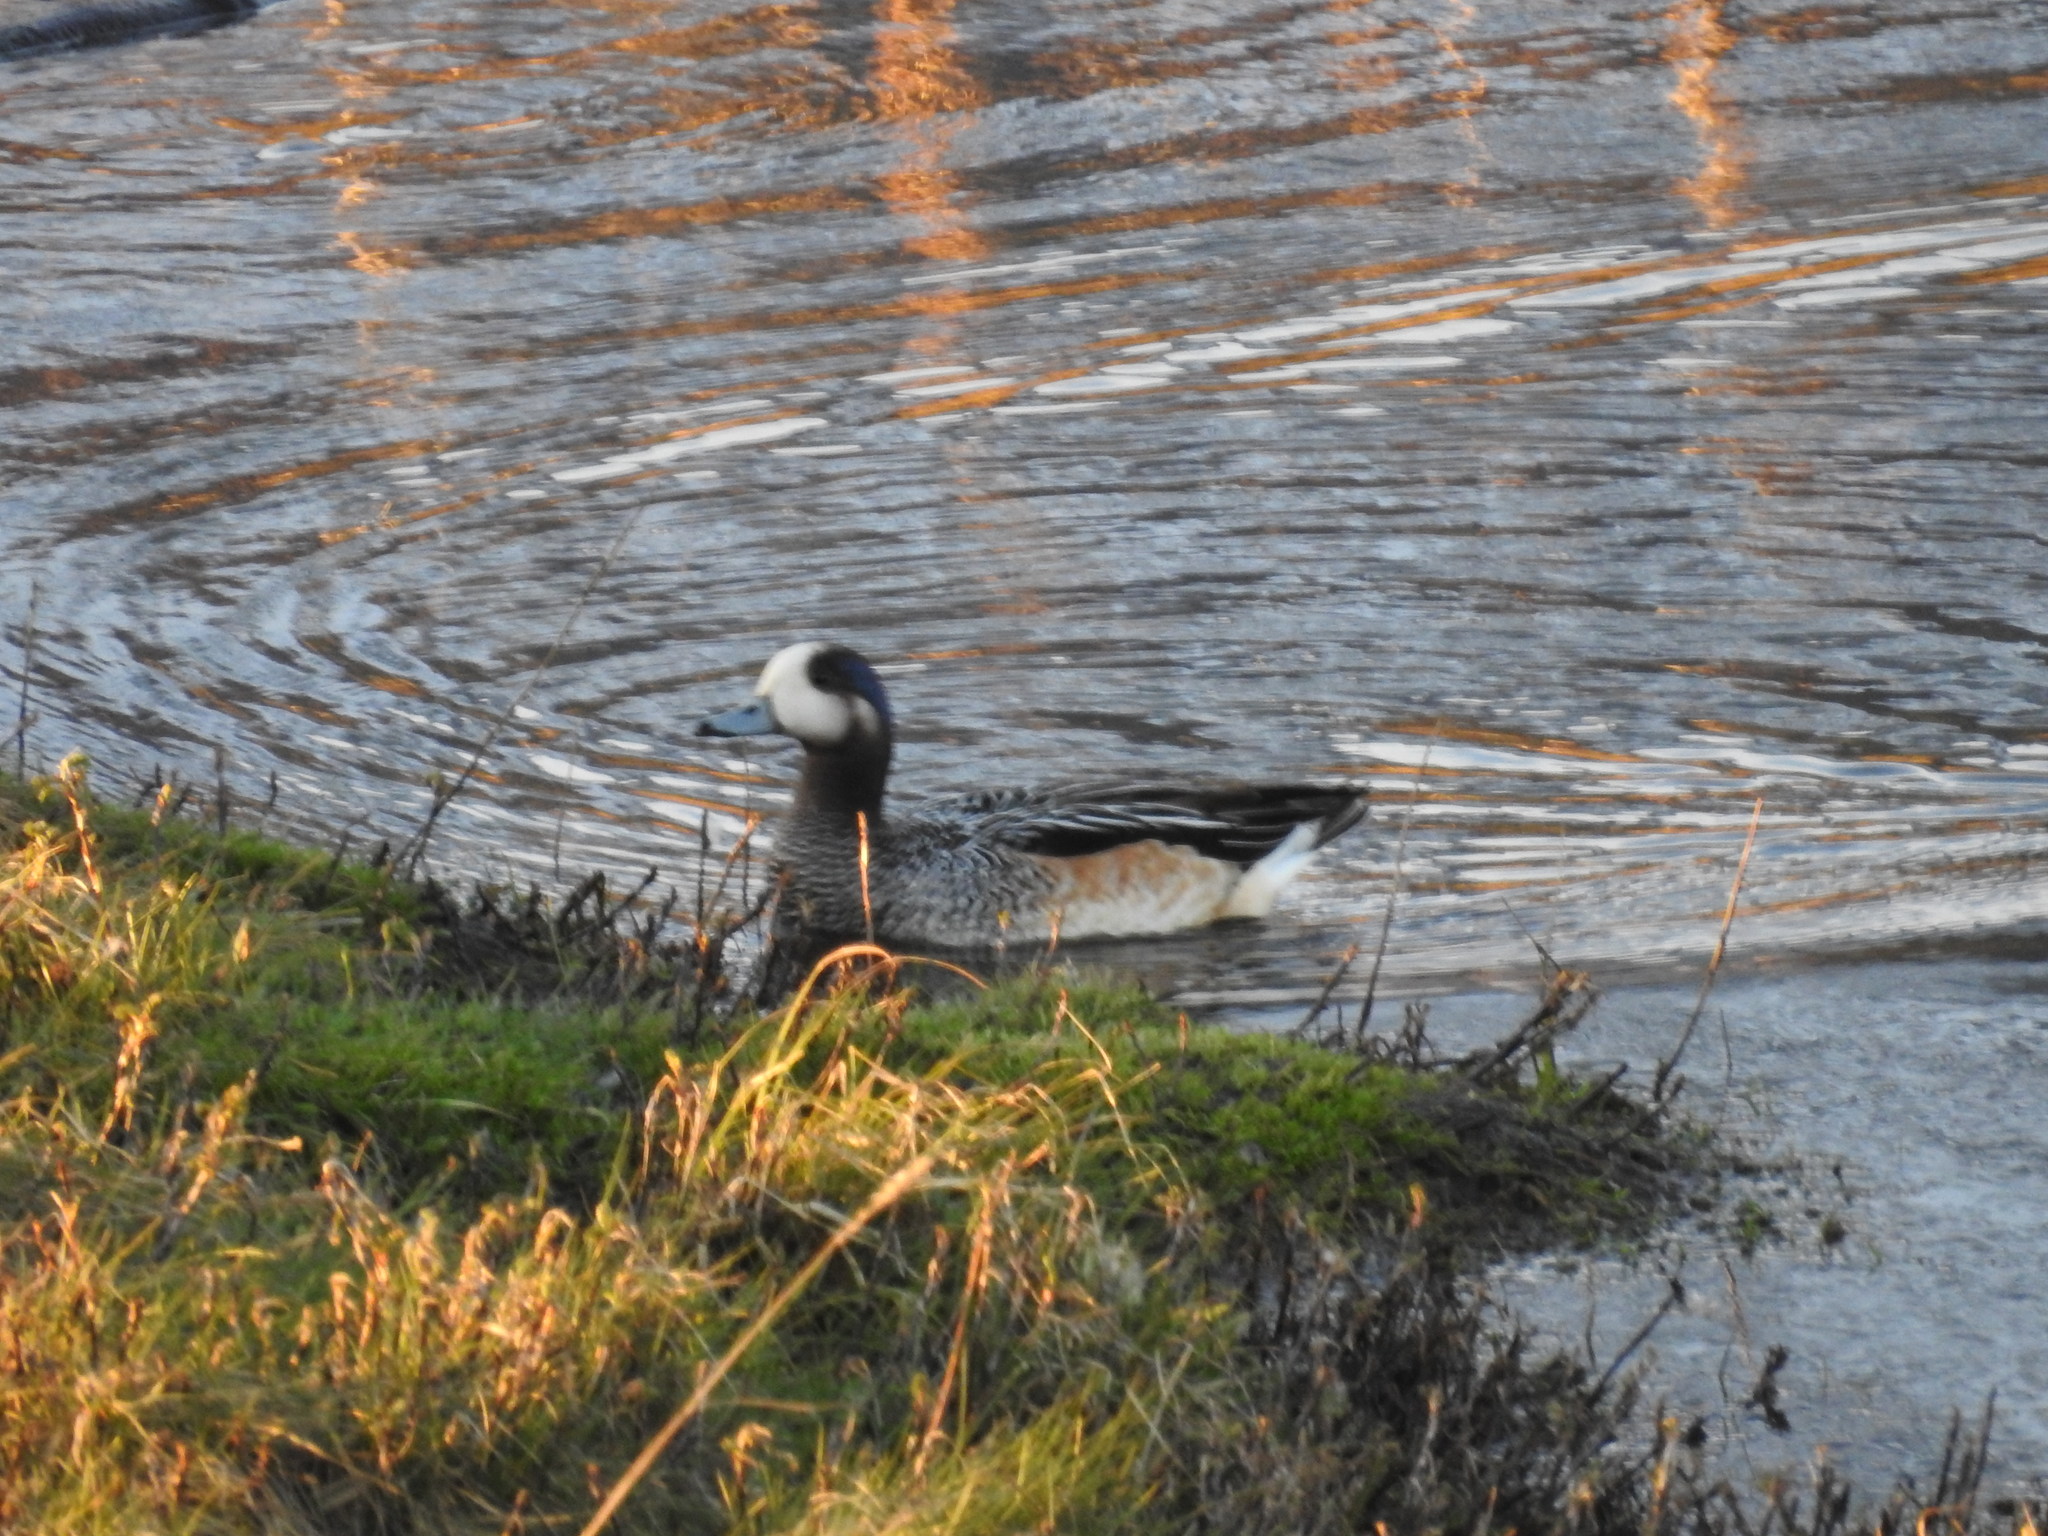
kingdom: Animalia
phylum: Chordata
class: Aves
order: Anseriformes
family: Anatidae
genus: Mareca
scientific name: Mareca sibilatrix
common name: Chiloe wigeon
